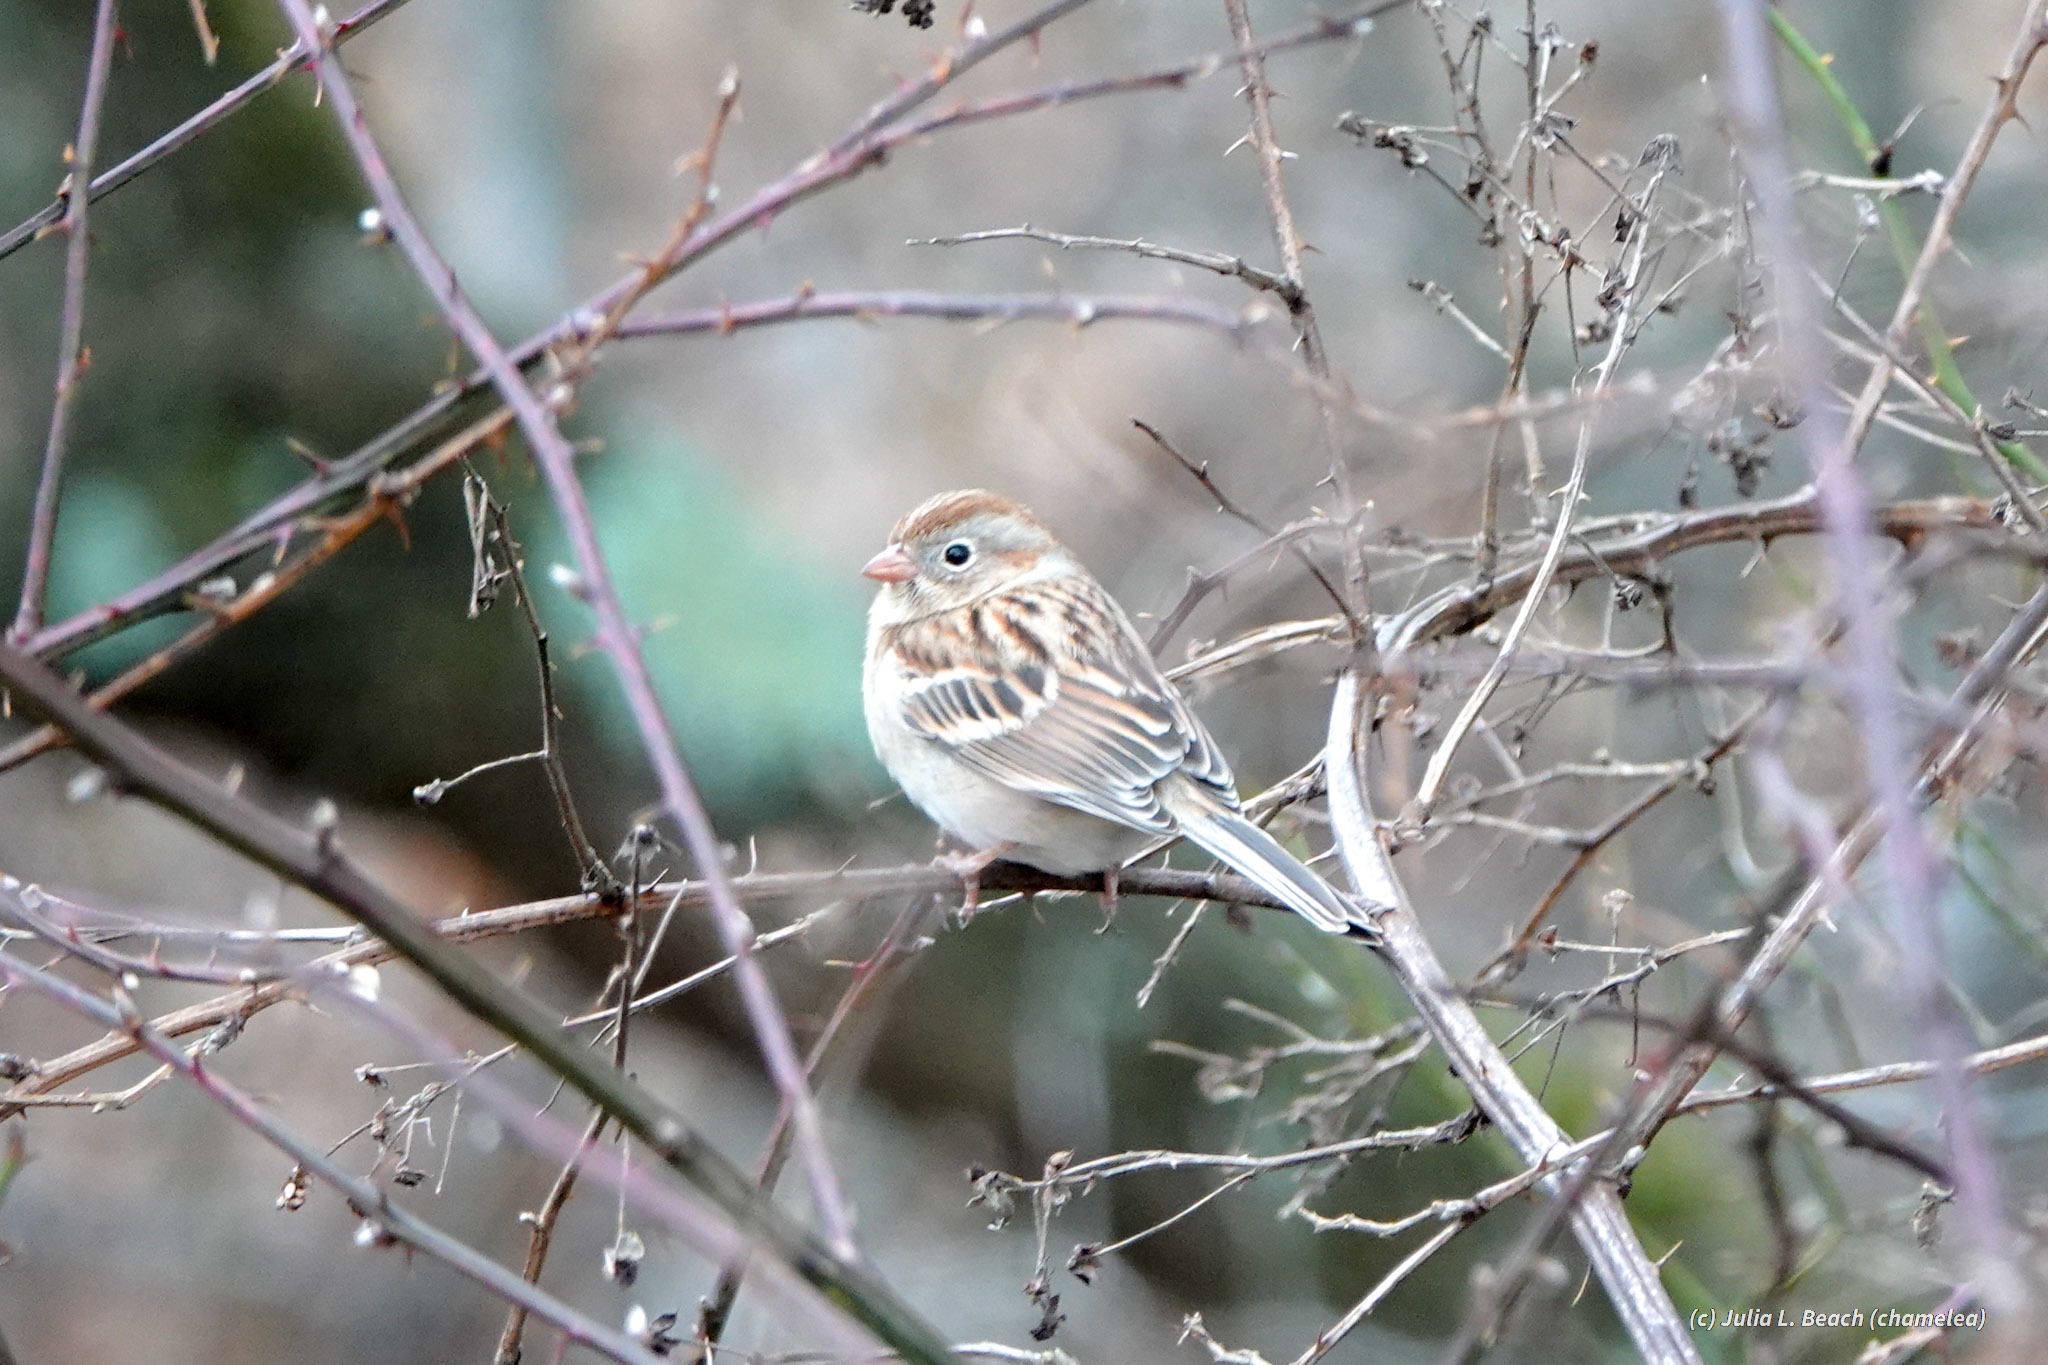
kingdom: Animalia
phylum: Chordata
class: Aves
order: Passeriformes
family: Passerellidae
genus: Spizella
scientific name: Spizella pusilla
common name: Field sparrow
